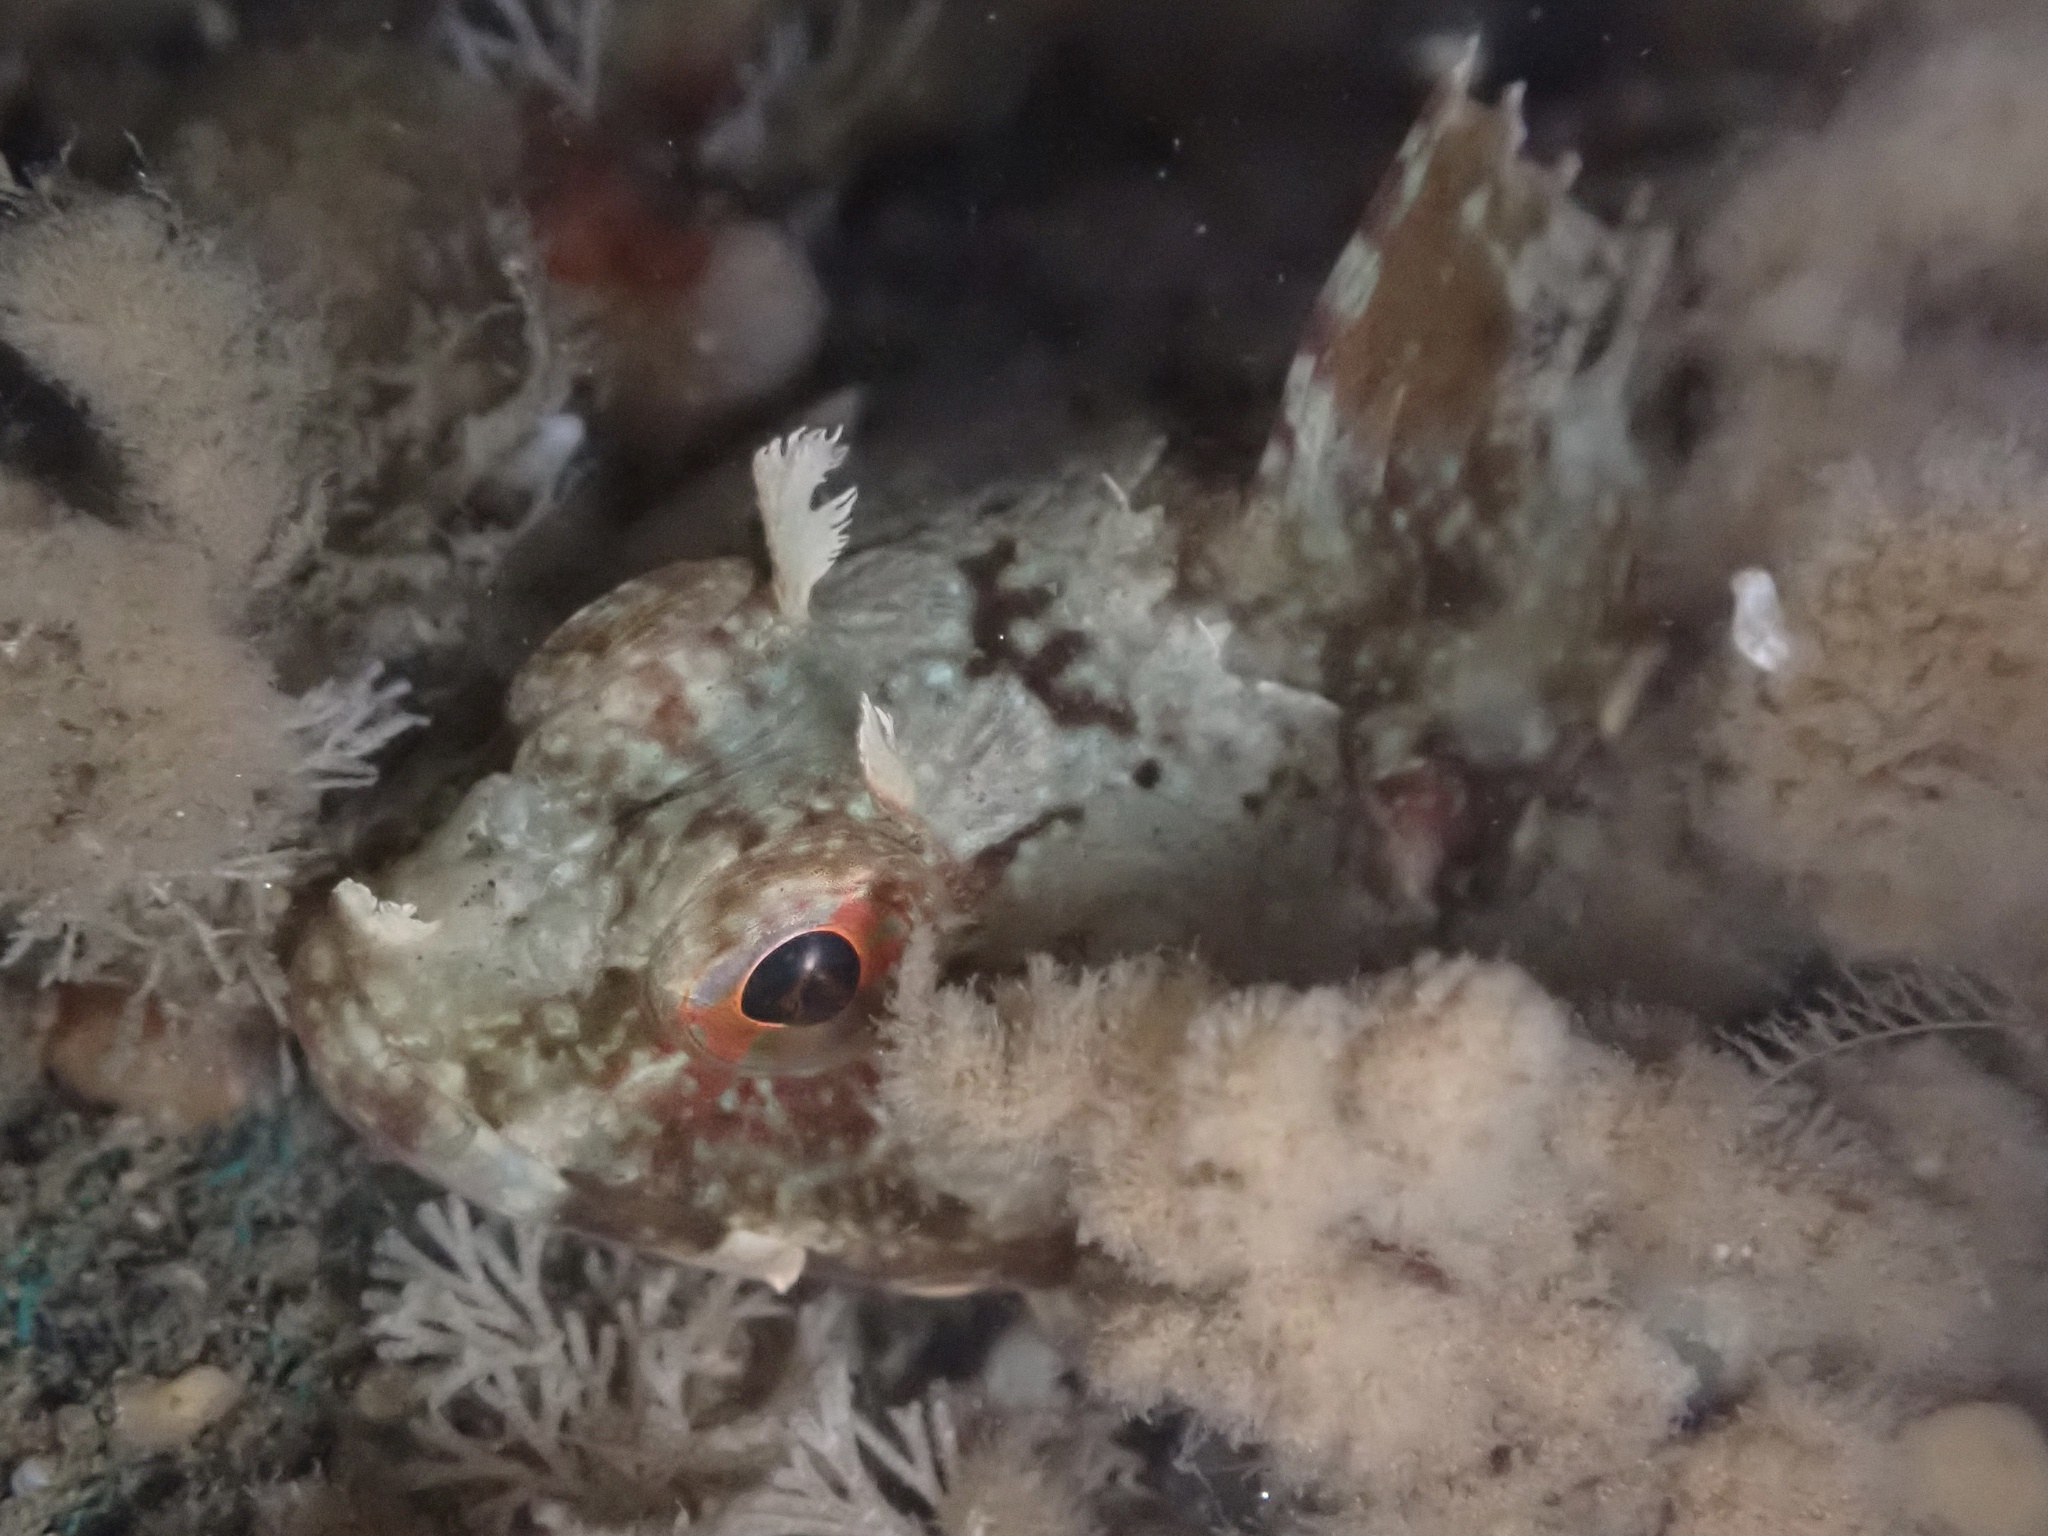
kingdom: Animalia
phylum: Chordata
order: Scorpaeniformes
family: Cottidae
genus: Scorpaenichthys
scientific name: Scorpaenichthys marmoratus
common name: Cabezon
